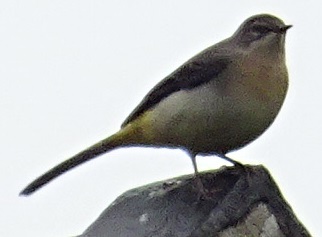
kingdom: Animalia
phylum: Chordata
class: Aves
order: Passeriformes
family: Motacillidae
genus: Motacilla
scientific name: Motacilla cinerea
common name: Grey wagtail
